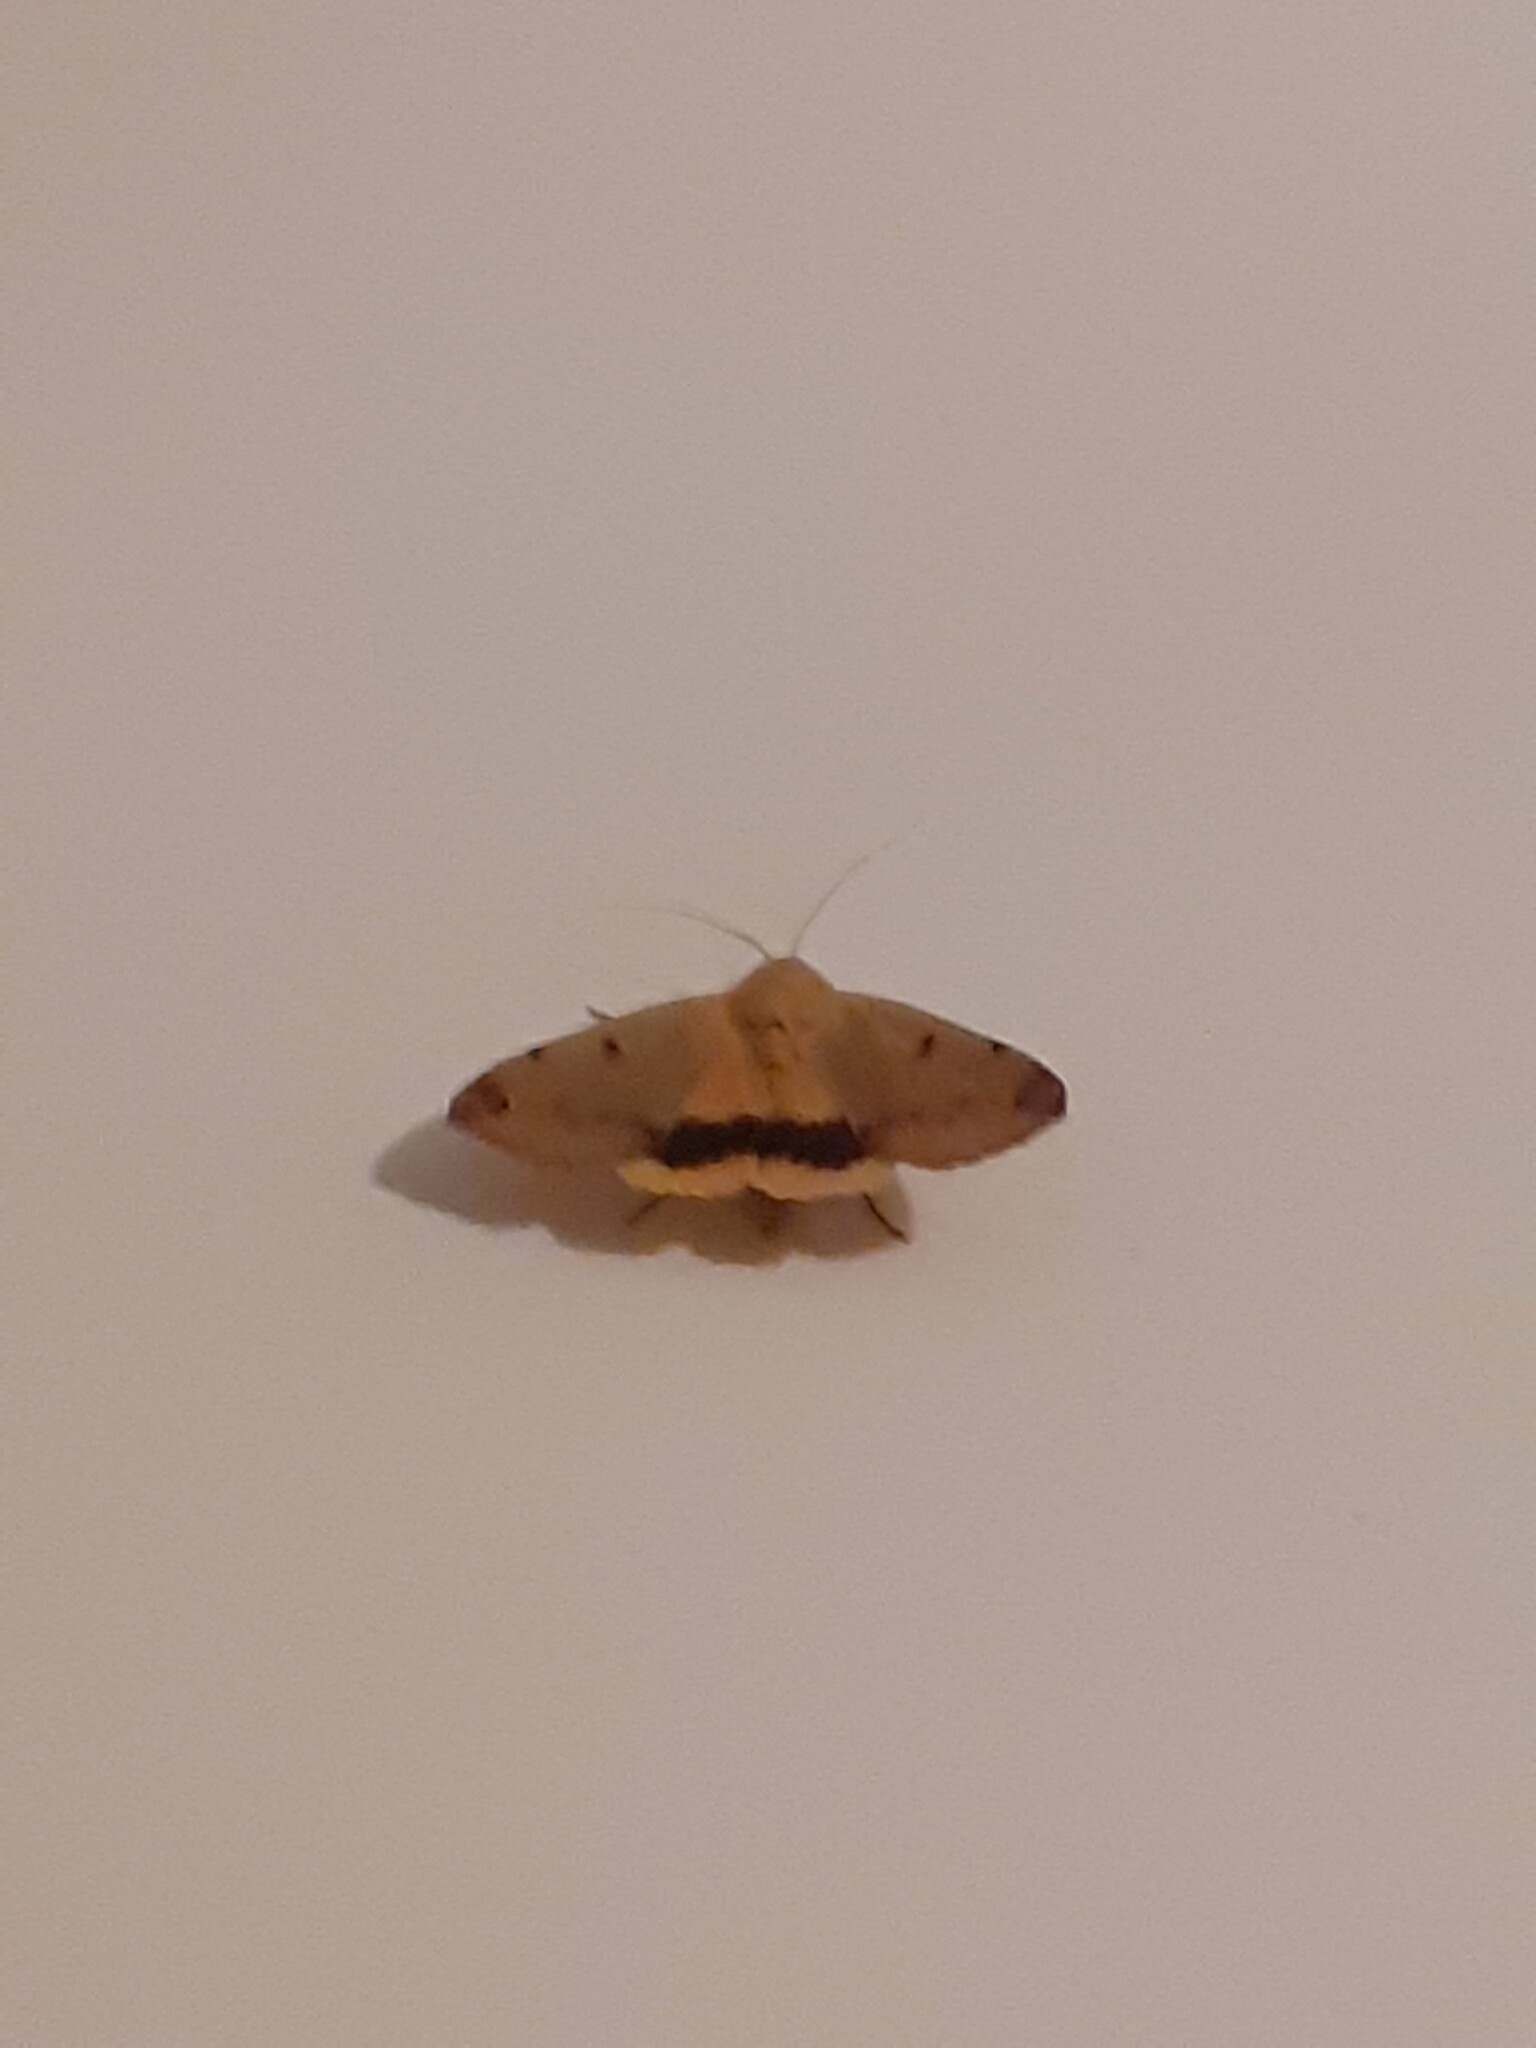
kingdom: Animalia
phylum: Arthropoda
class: Insecta
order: Lepidoptera
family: Erebidae
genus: Ophiusa
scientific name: Ophiusa tirhaca
